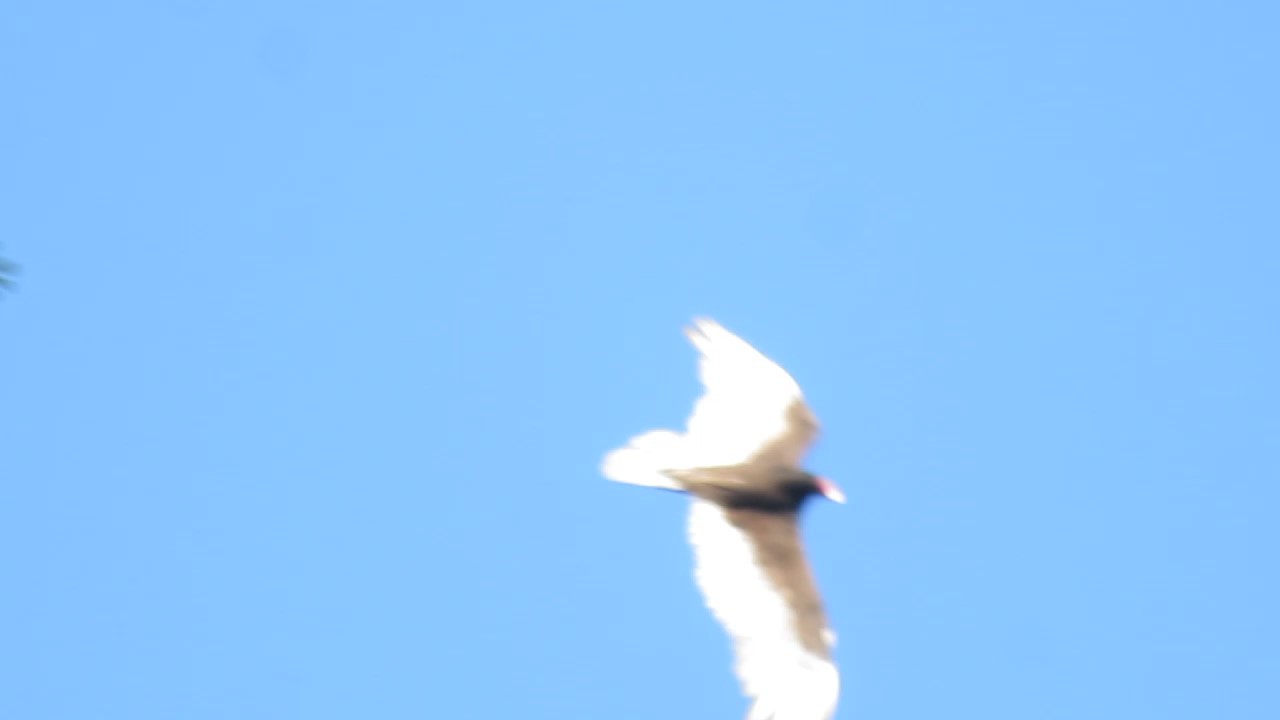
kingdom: Animalia
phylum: Chordata
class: Aves
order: Accipitriformes
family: Cathartidae
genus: Cathartes
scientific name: Cathartes aura
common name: Turkey vulture
